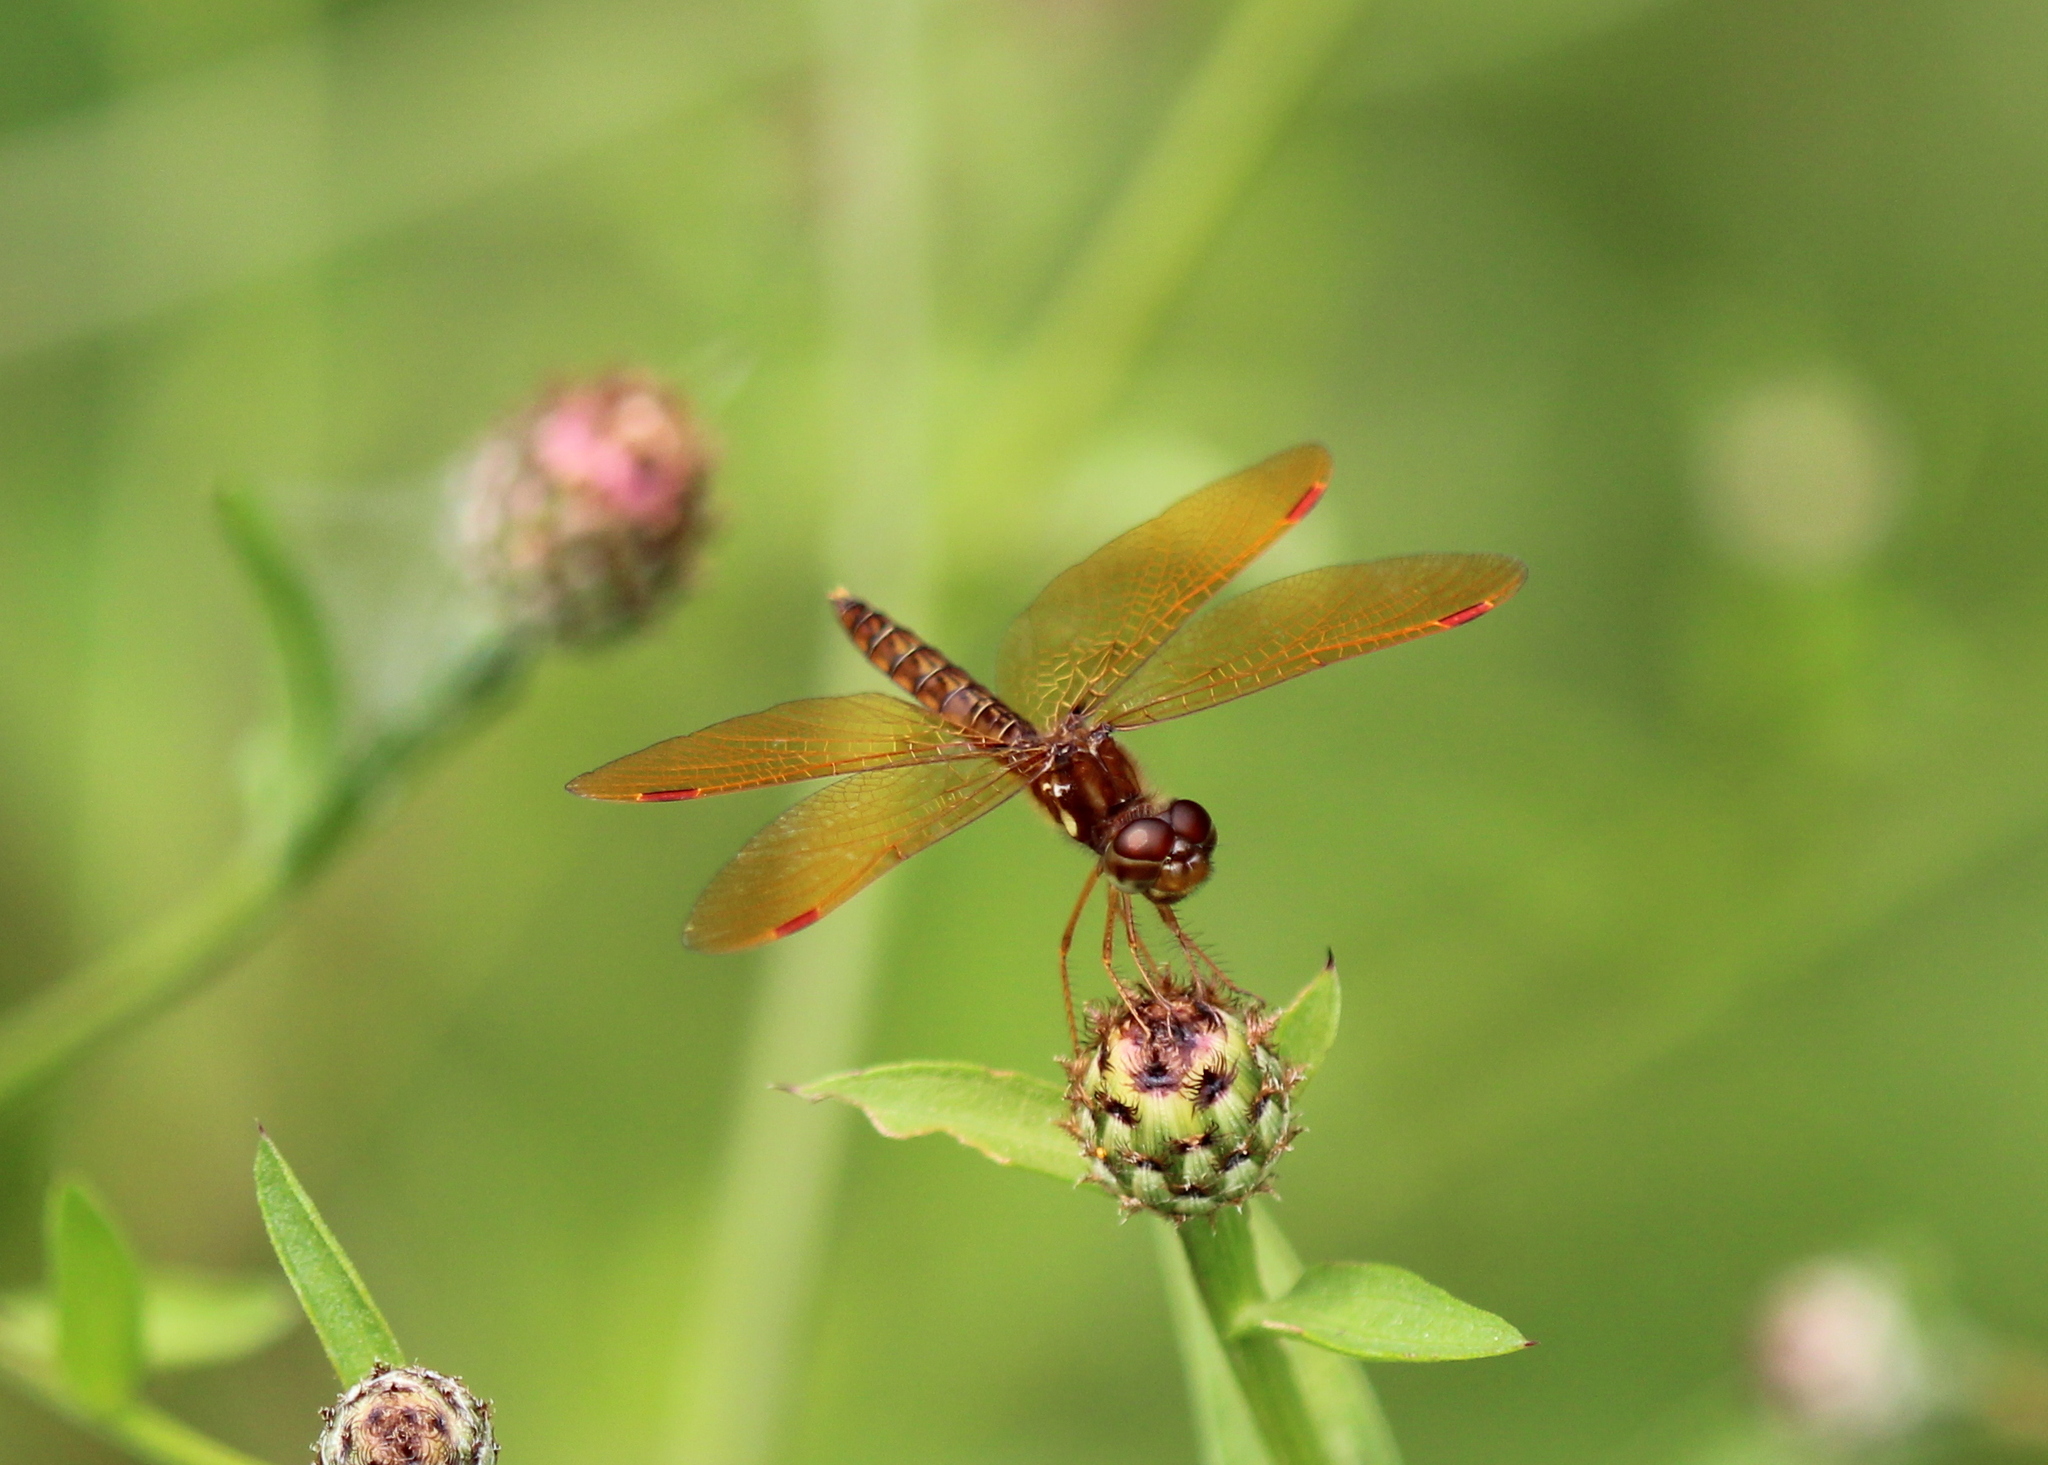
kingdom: Animalia
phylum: Arthropoda
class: Insecta
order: Odonata
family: Libellulidae
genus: Perithemis
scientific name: Perithemis tenera
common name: Eastern amberwing
